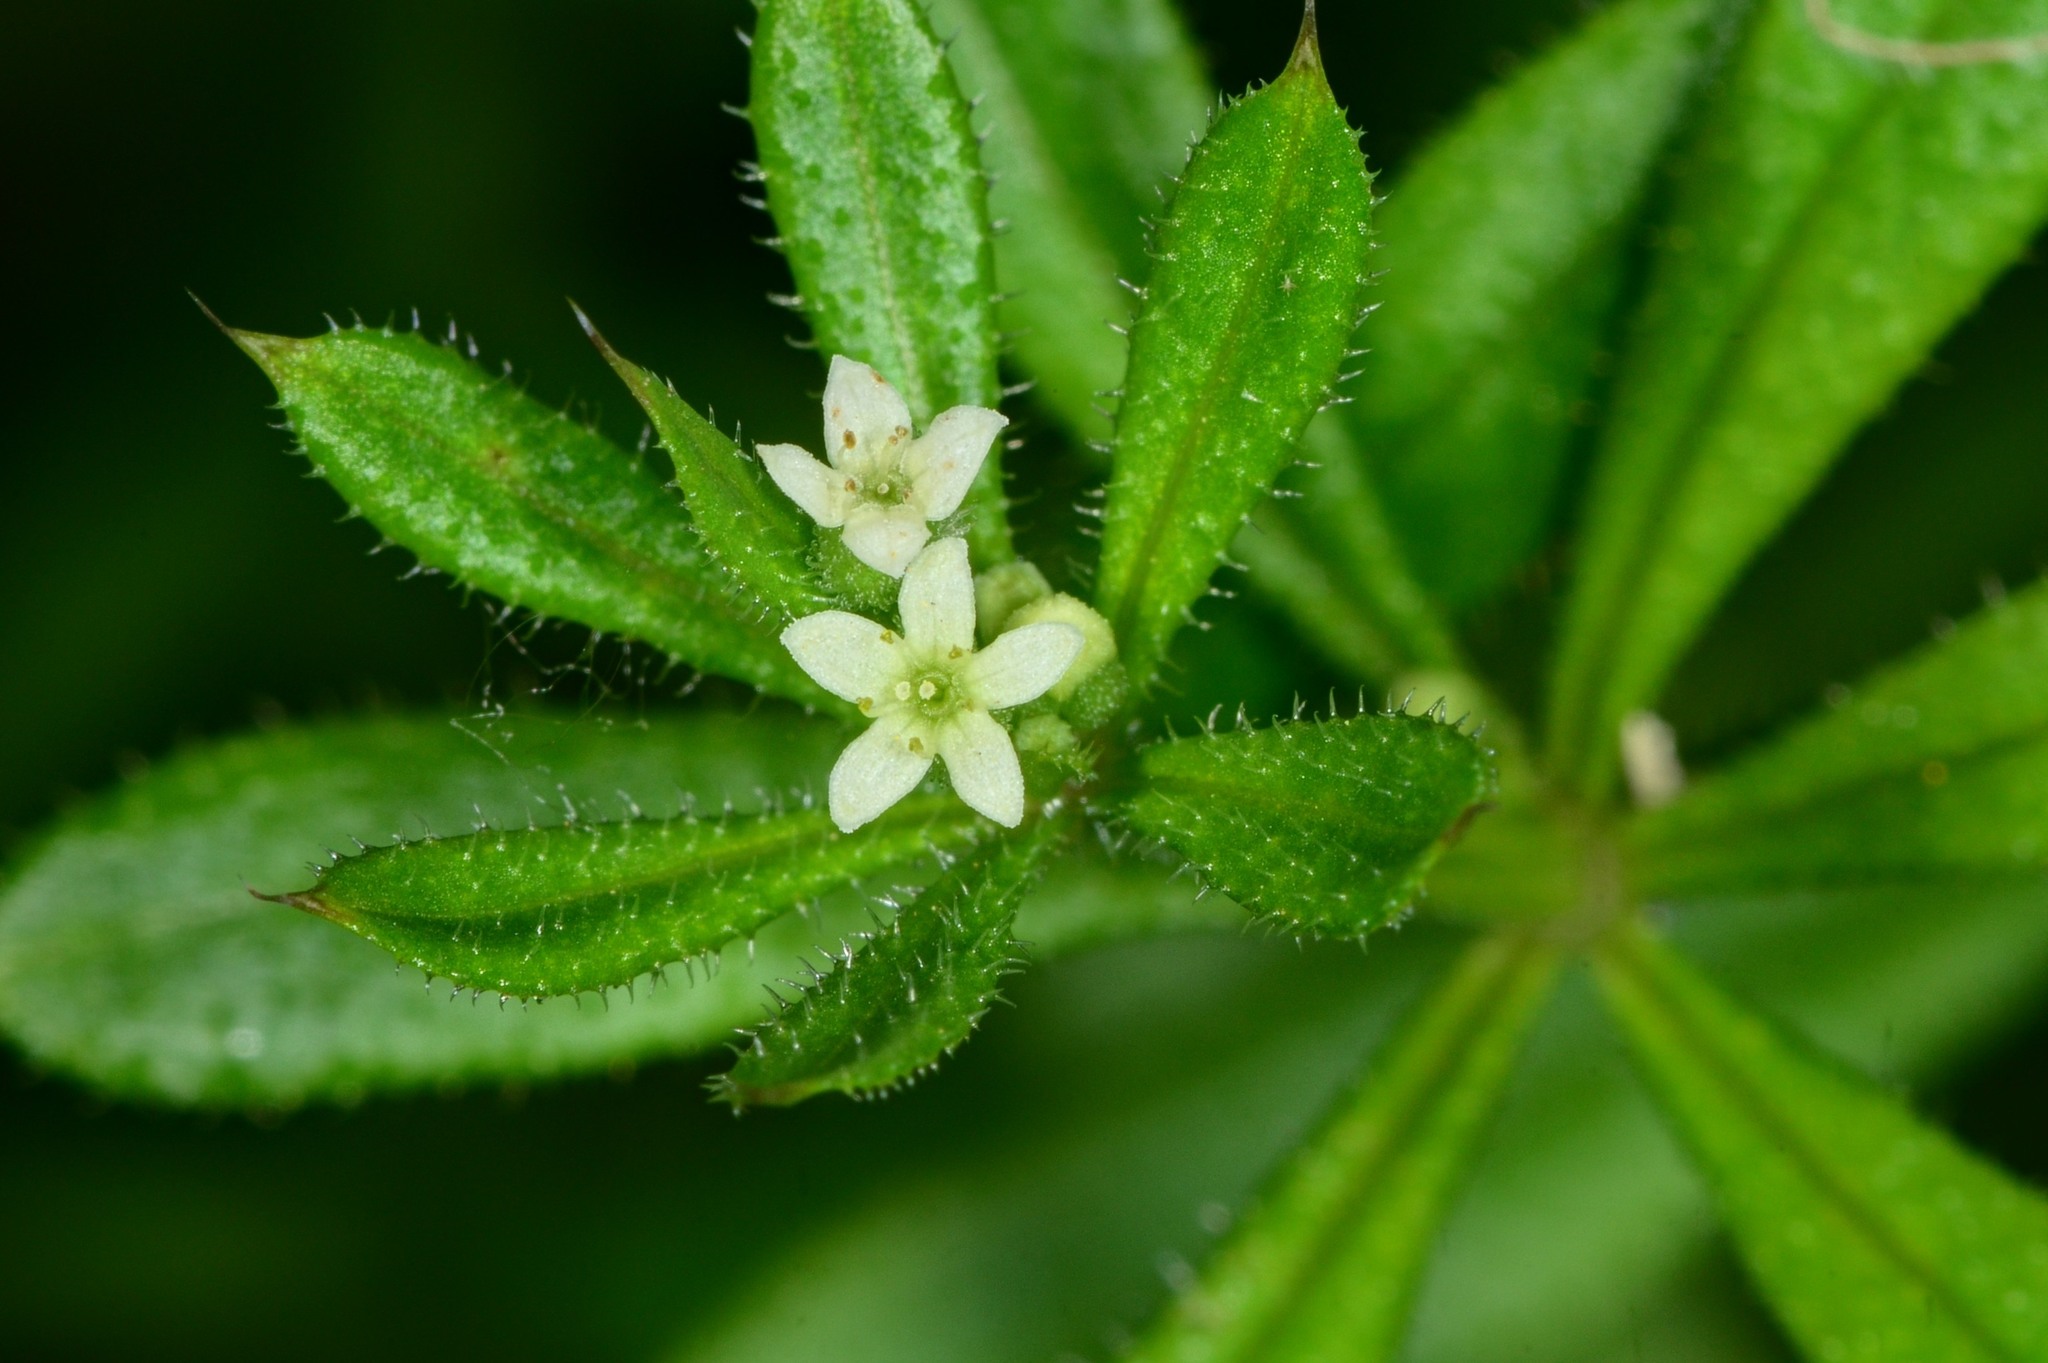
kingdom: Plantae
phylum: Tracheophyta
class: Magnoliopsida
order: Gentianales
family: Rubiaceae
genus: Galium
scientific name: Galium aparine
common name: Cleavers
